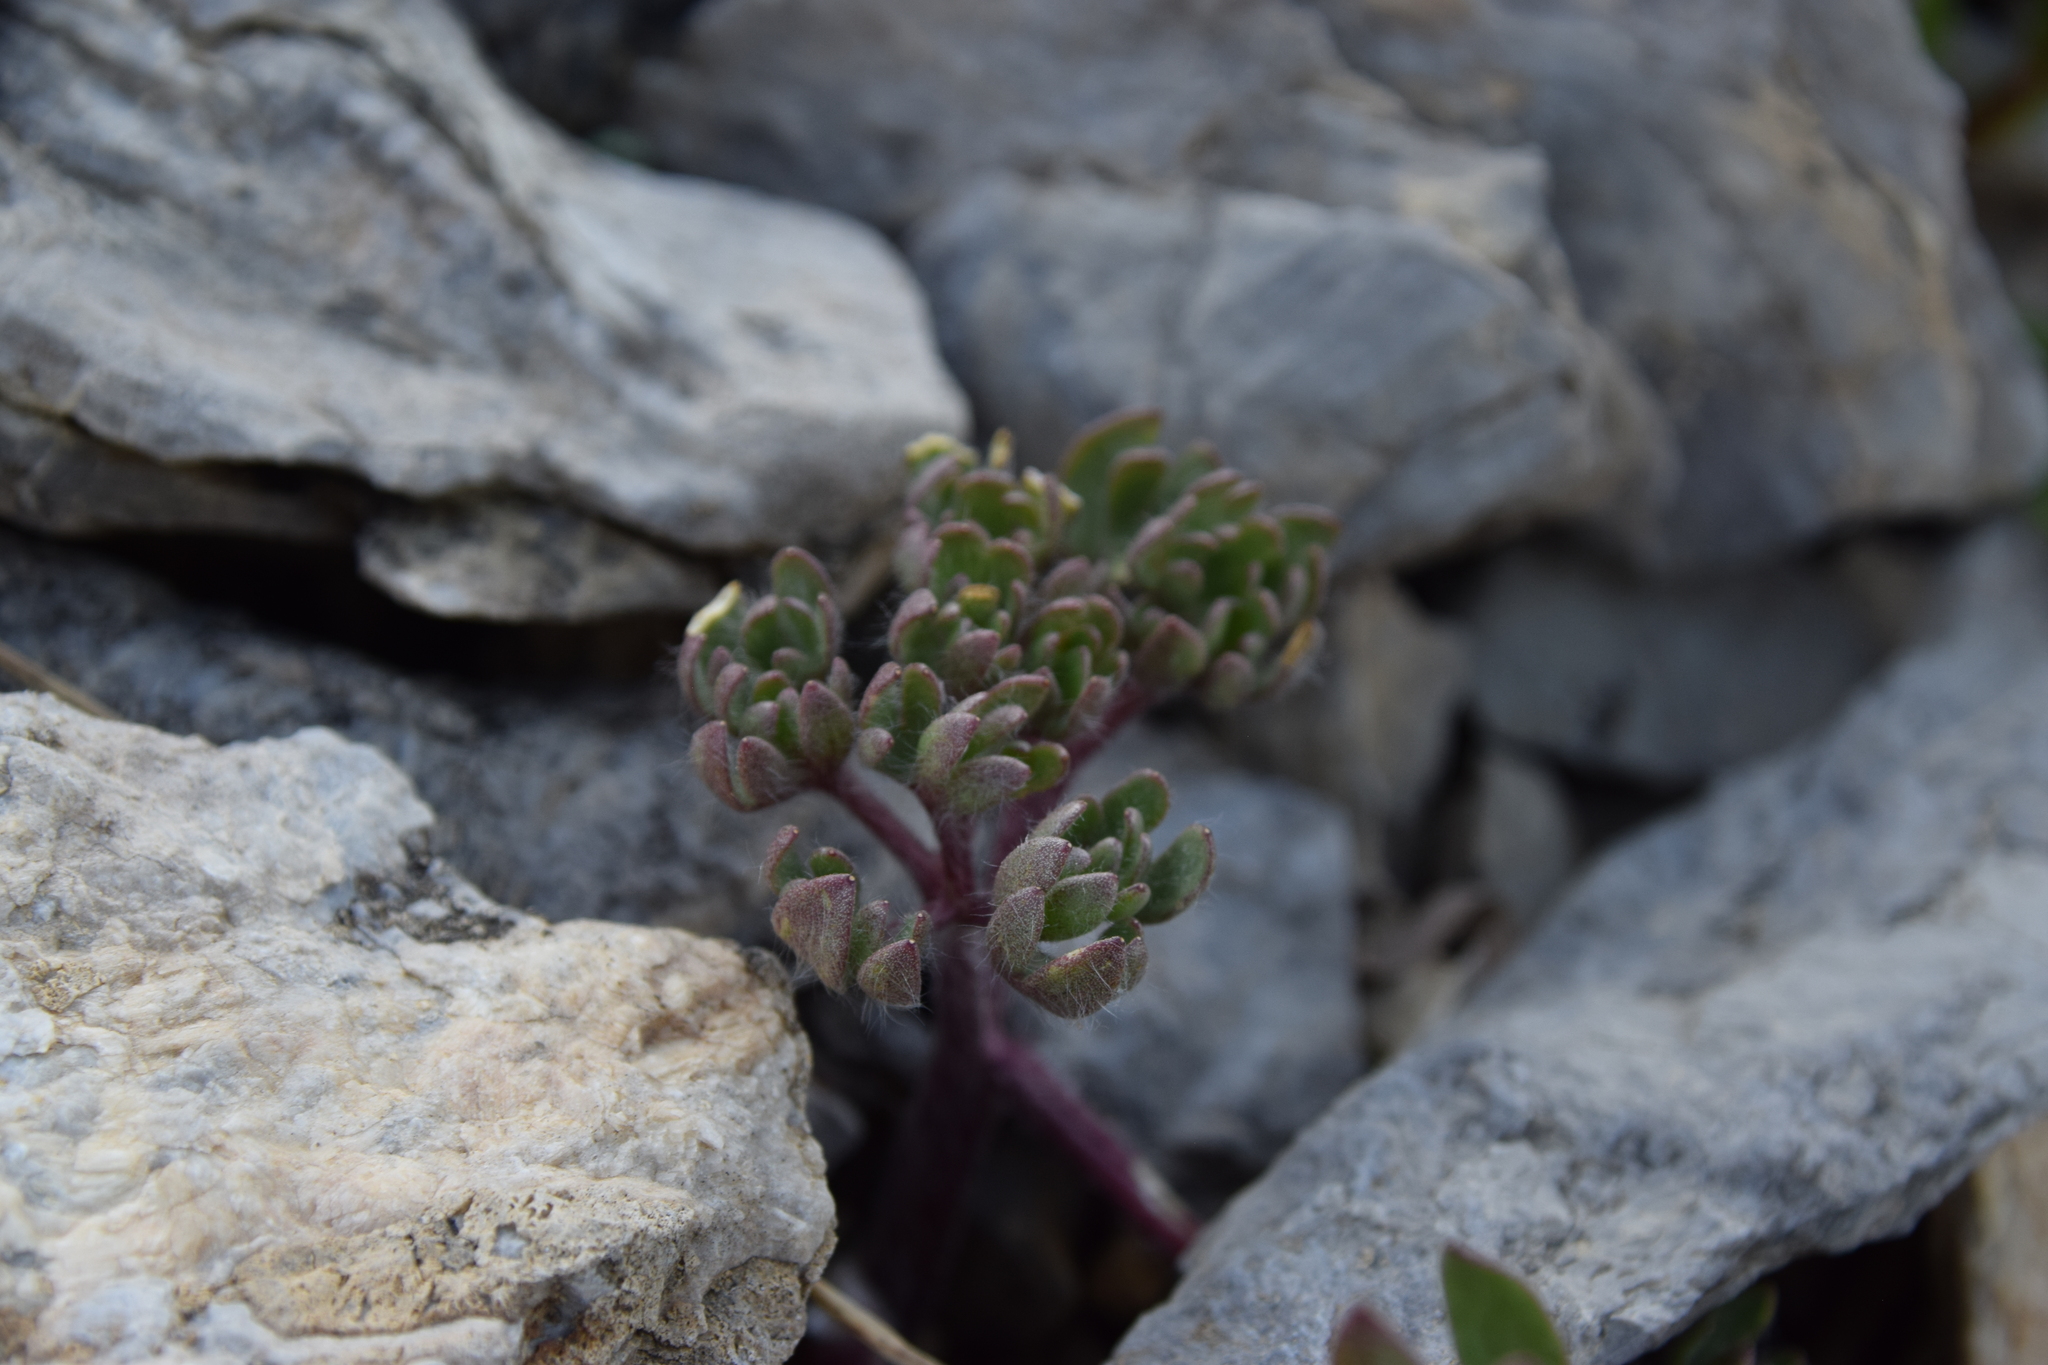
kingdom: Plantae
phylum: Tracheophyta
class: Magnoliopsida
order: Ranunculales
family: Ranunculaceae
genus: Ranunculus
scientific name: Ranunculus glacialis
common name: Glacier buttercup
